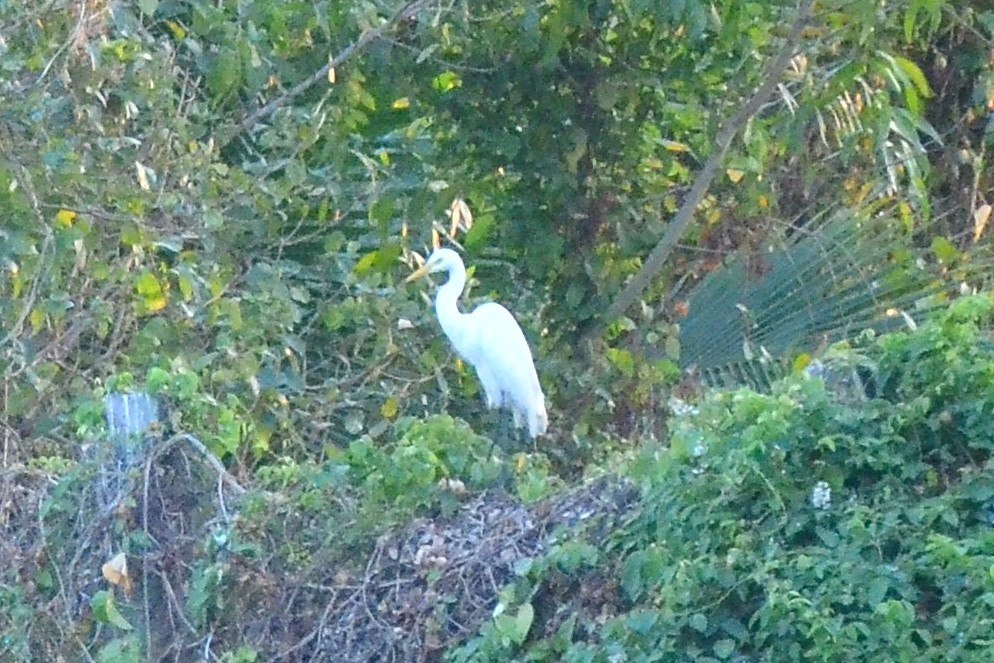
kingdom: Animalia
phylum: Chordata
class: Aves
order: Pelecaniformes
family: Ardeidae
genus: Egretta
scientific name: Egretta intermedia
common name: Intermediate egret
